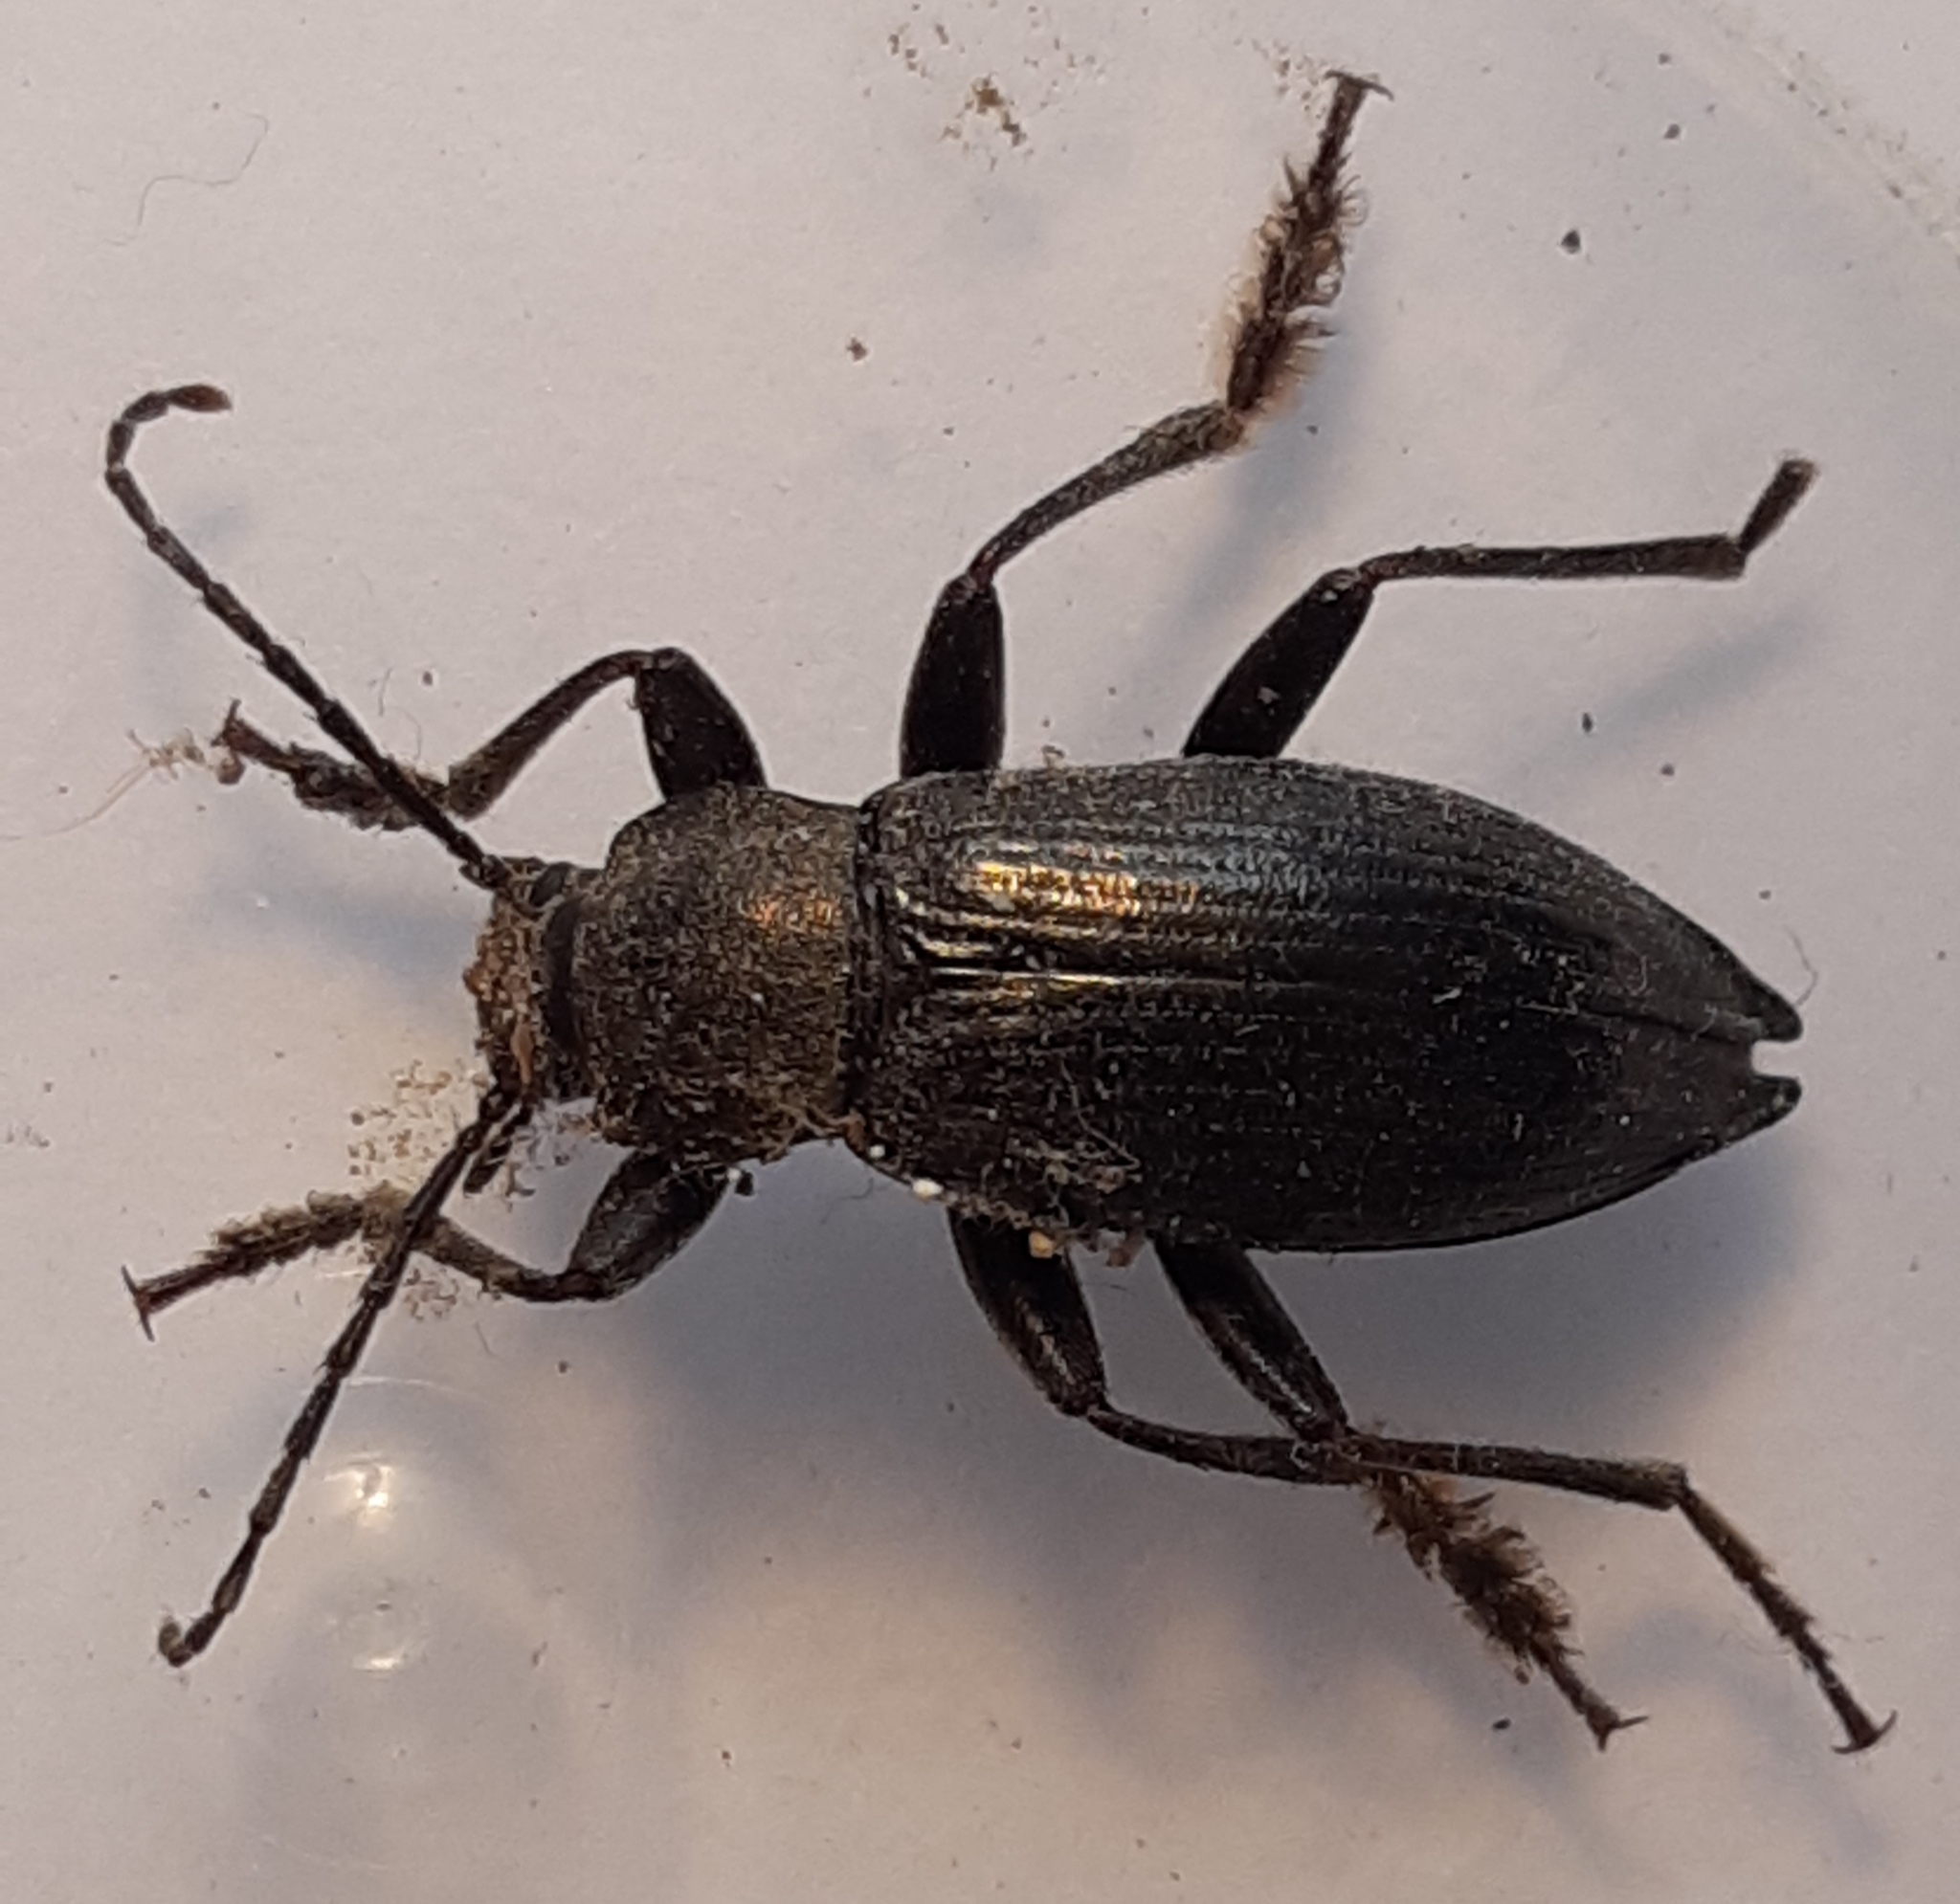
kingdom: Animalia
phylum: Arthropoda
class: Insecta
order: Coleoptera
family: Tenebrionidae
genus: Stenomax
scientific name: Stenomax aeneus
